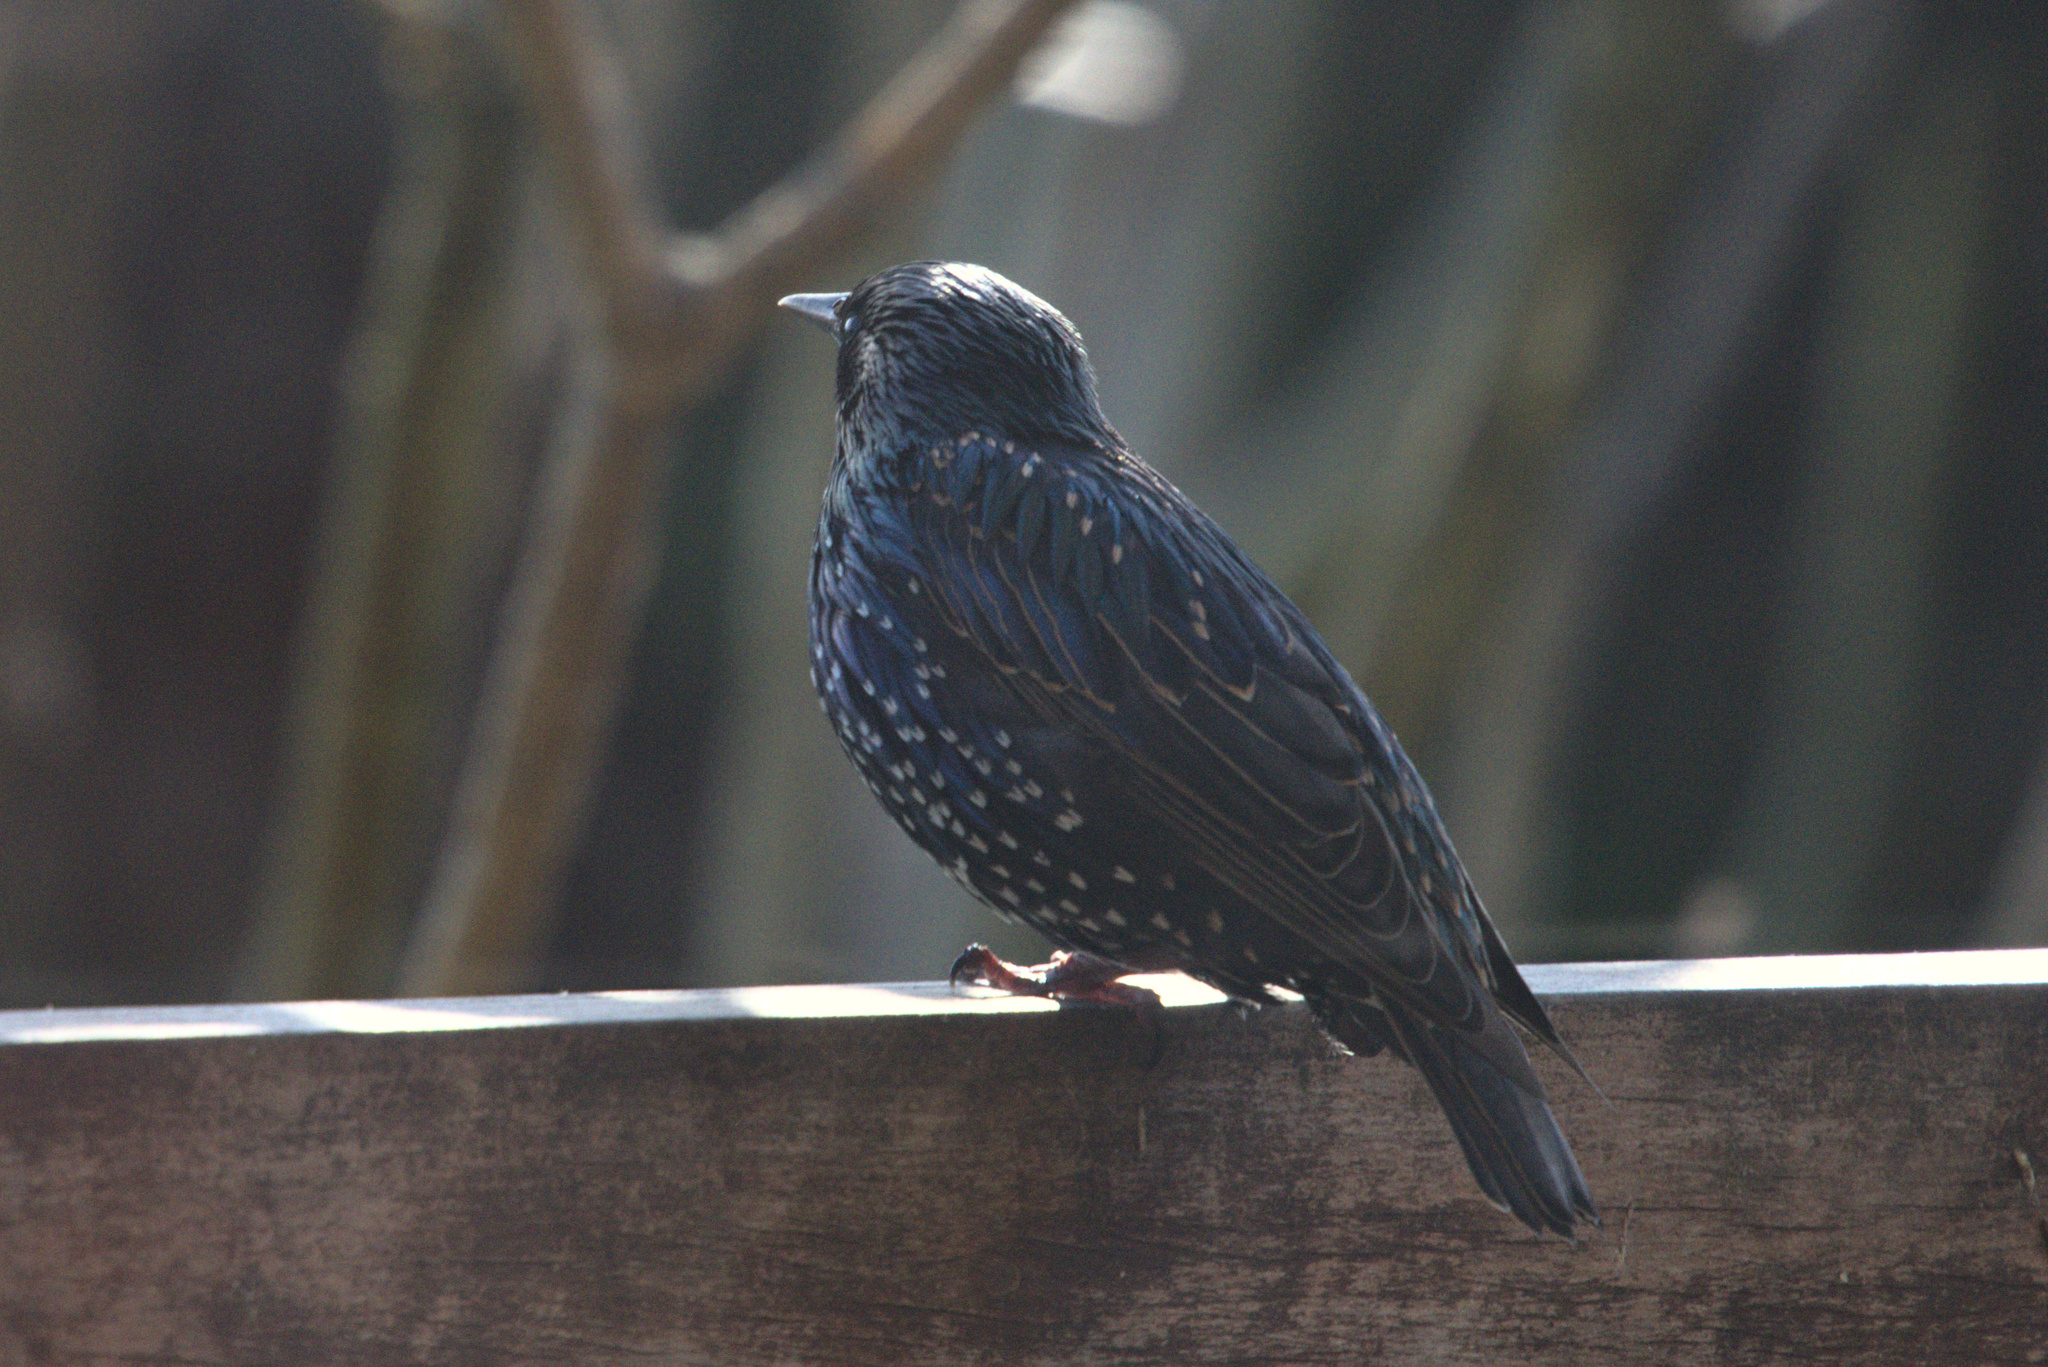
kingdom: Animalia
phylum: Chordata
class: Aves
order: Passeriformes
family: Sturnidae
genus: Sturnus
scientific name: Sturnus vulgaris
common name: Common starling
